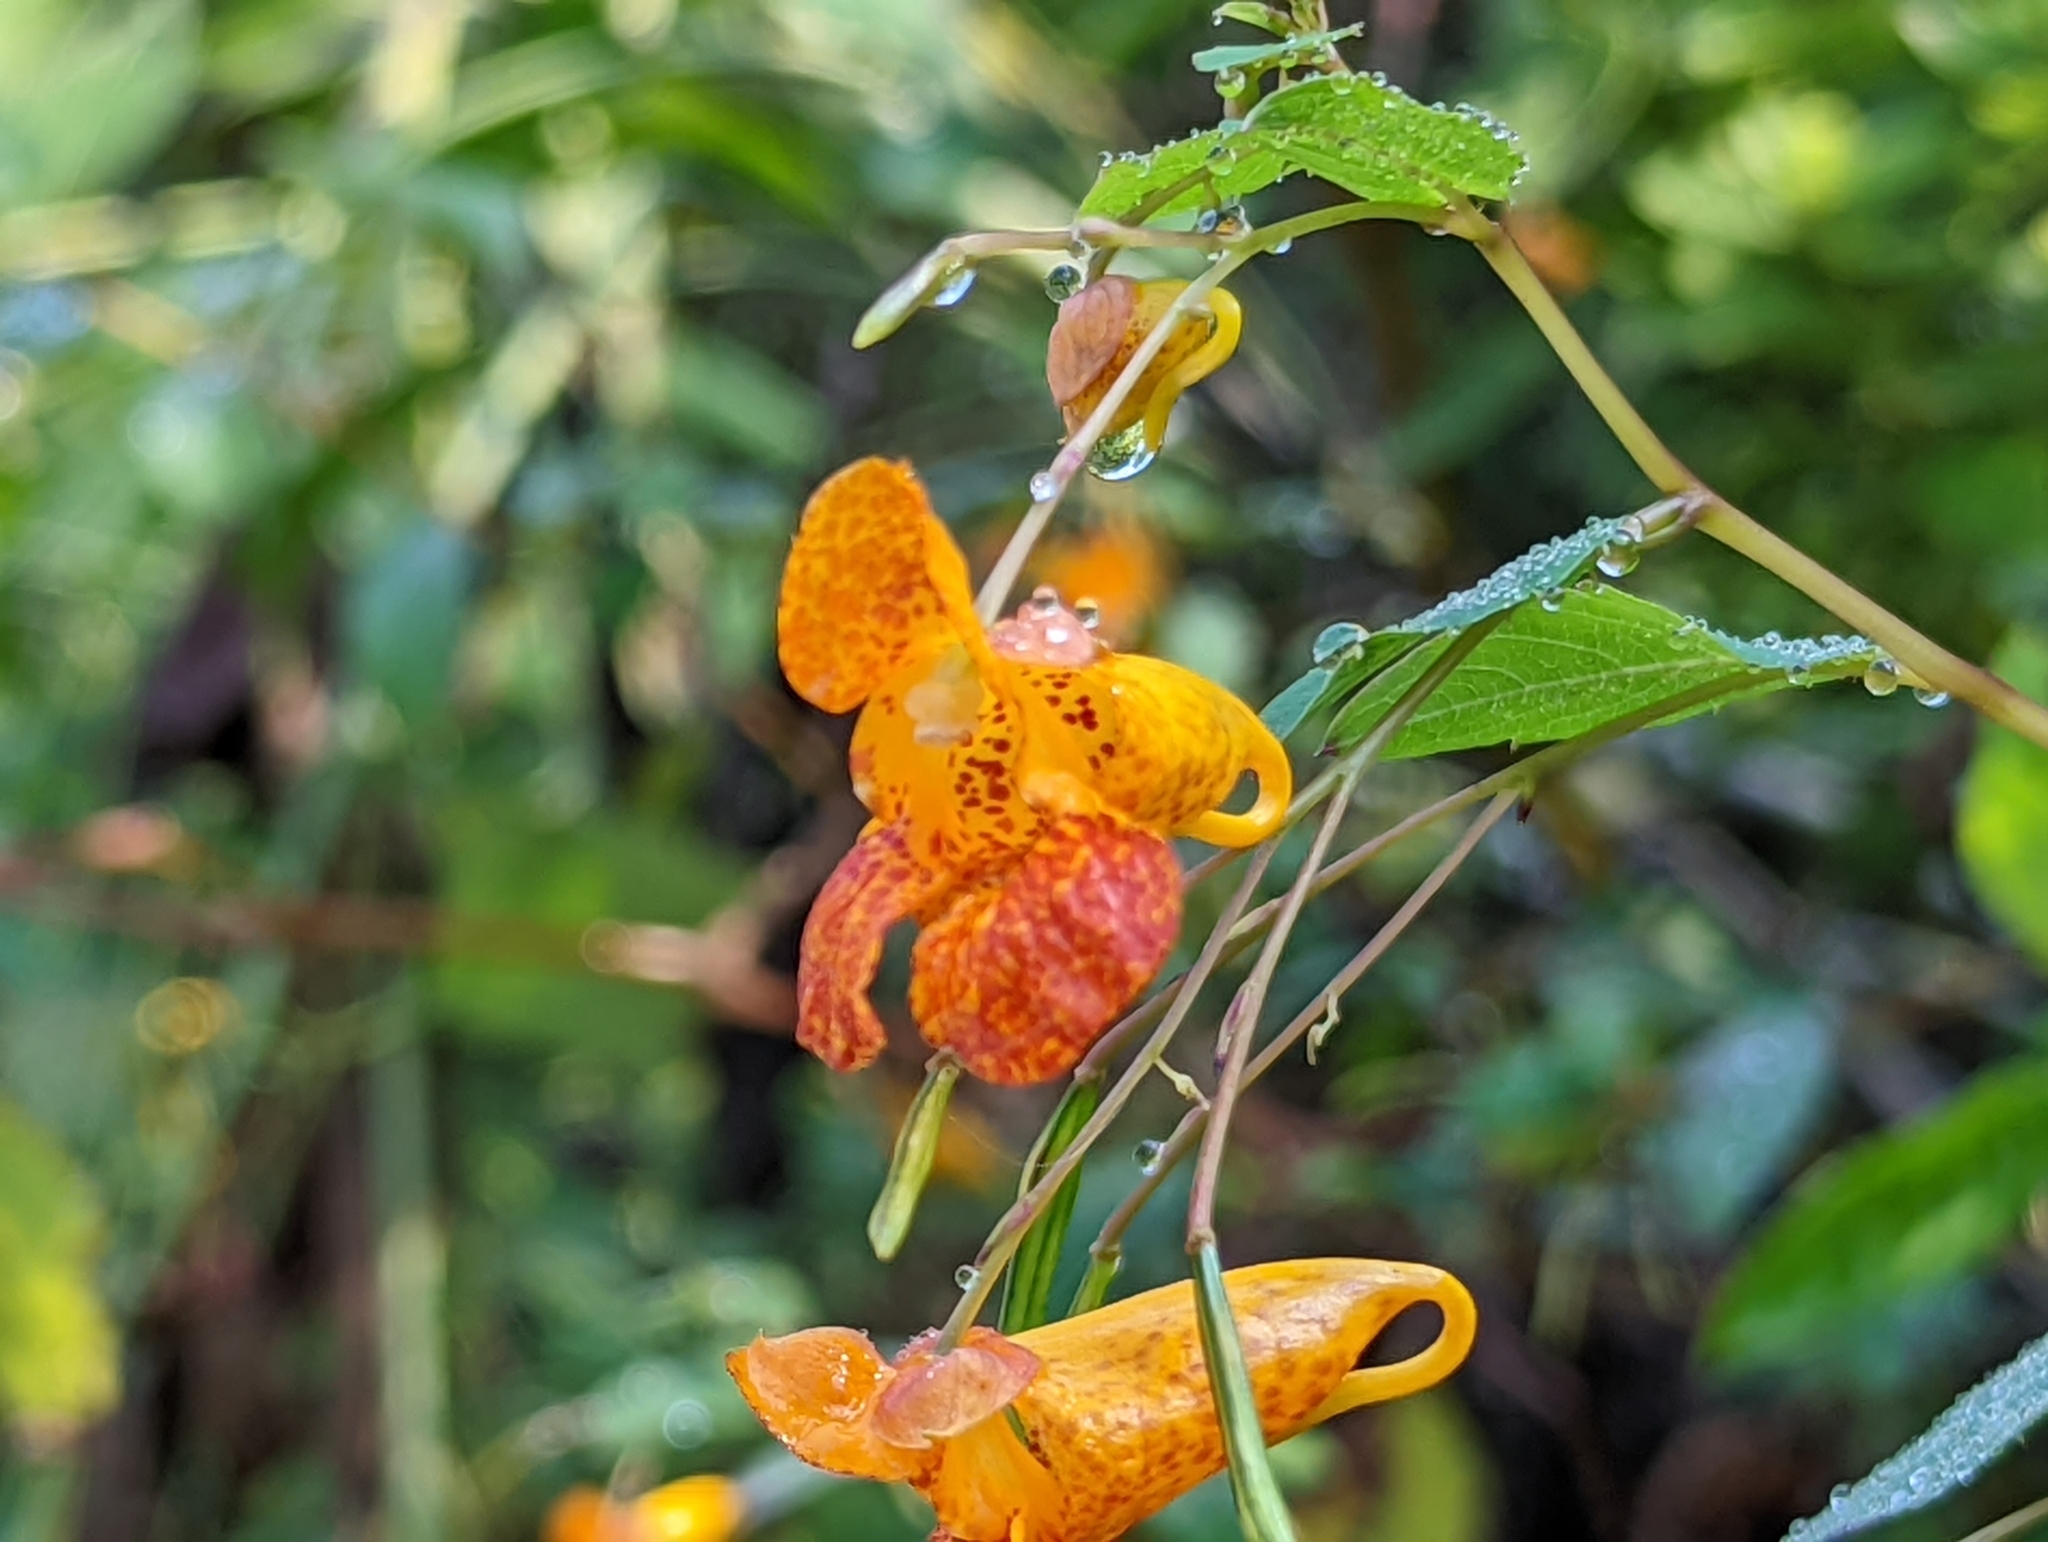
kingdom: Plantae
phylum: Tracheophyta
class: Magnoliopsida
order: Ericales
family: Balsaminaceae
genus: Impatiens
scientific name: Impatiens capensis
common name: Orange balsam
